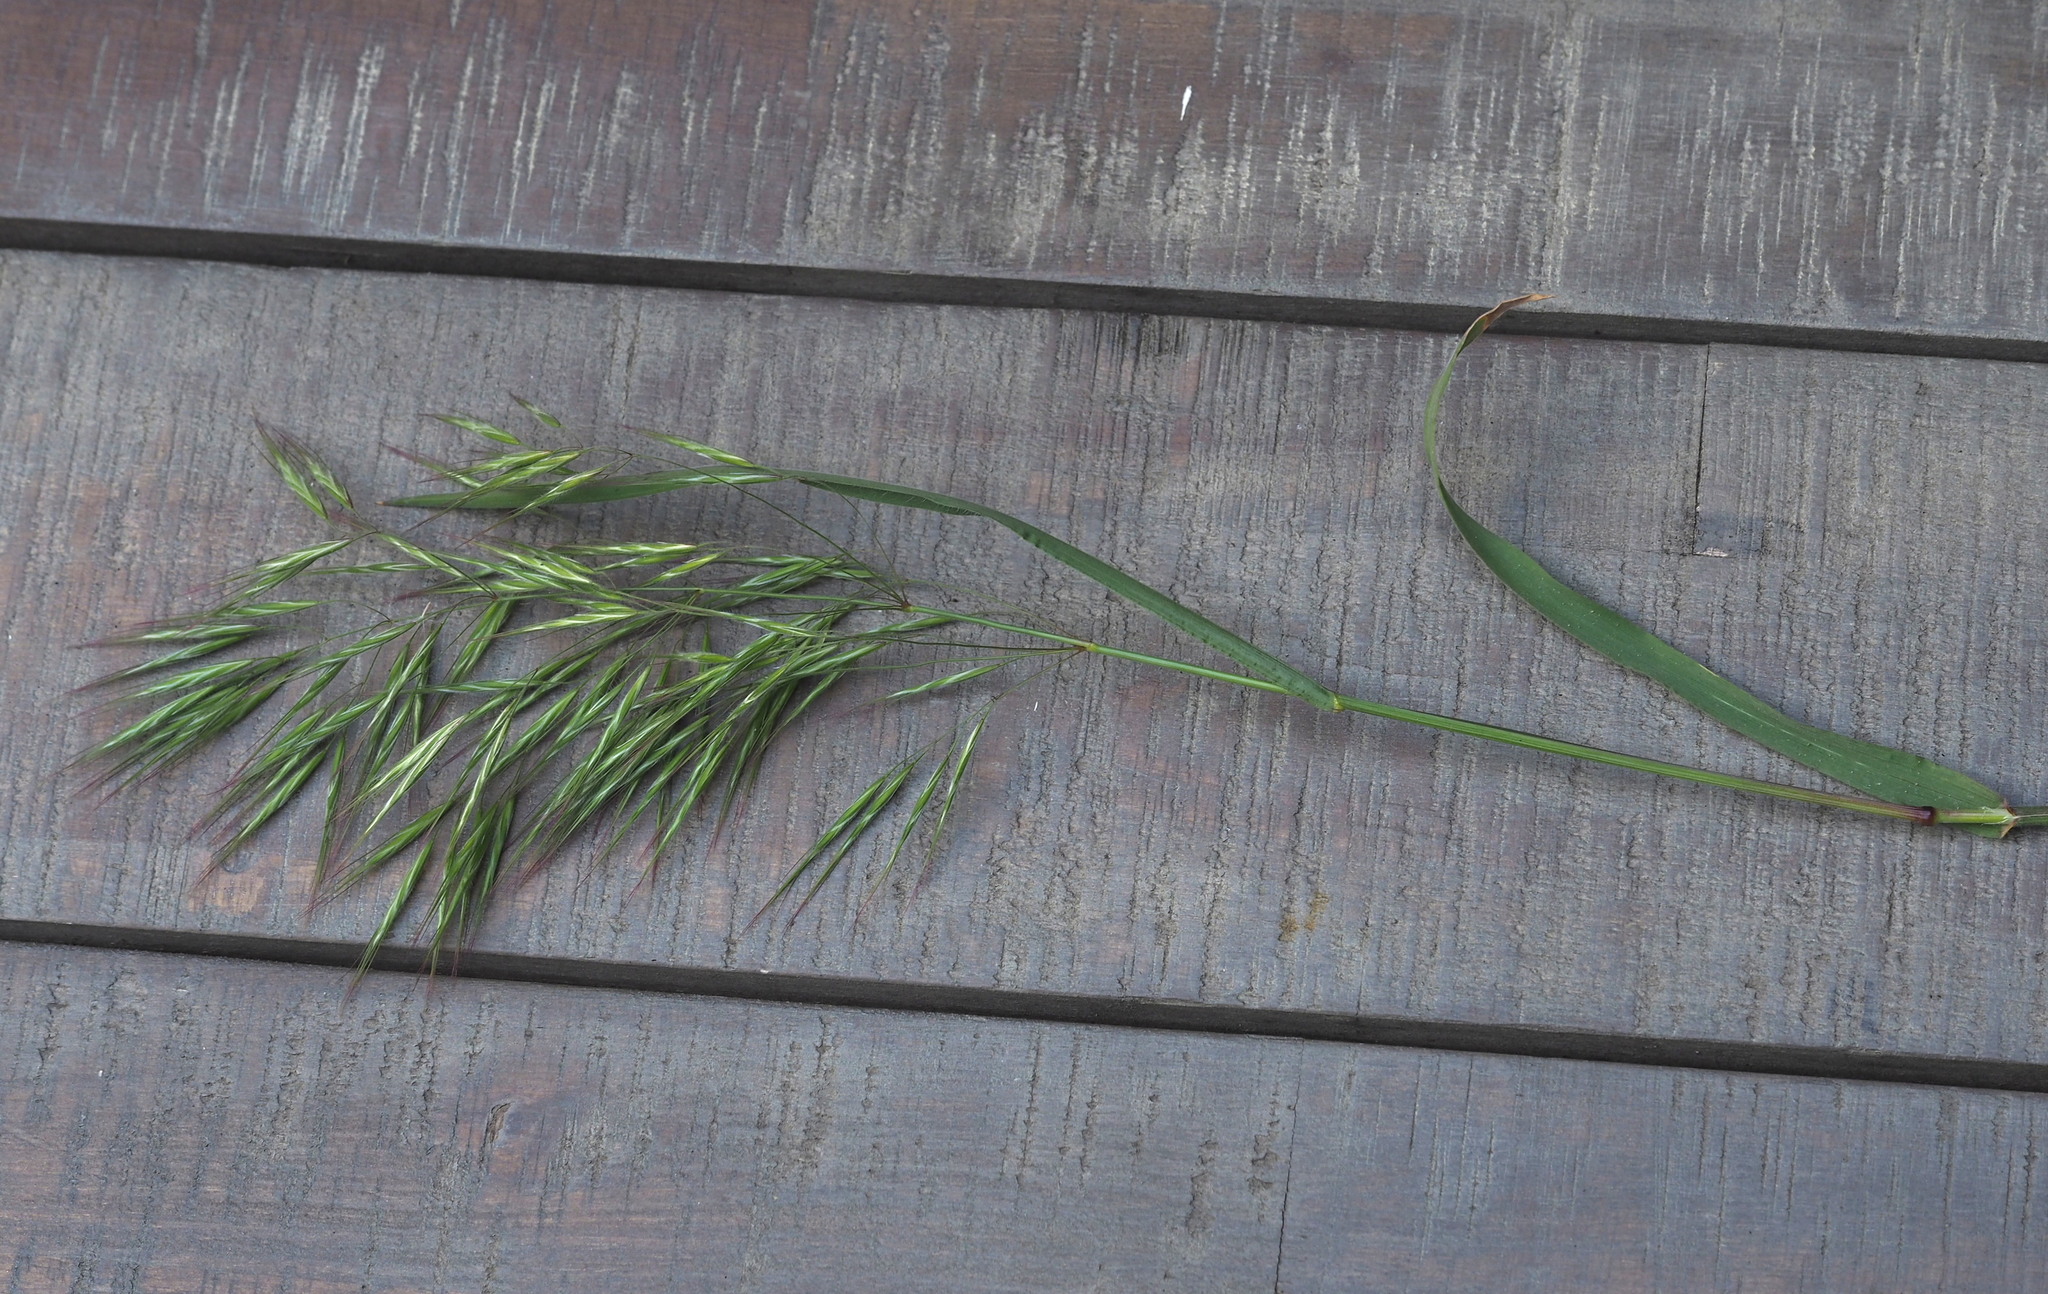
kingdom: Plantae
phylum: Tracheophyta
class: Liliopsida
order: Poales
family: Poaceae
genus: Bromus
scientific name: Bromus tectorum
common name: Cheatgrass
